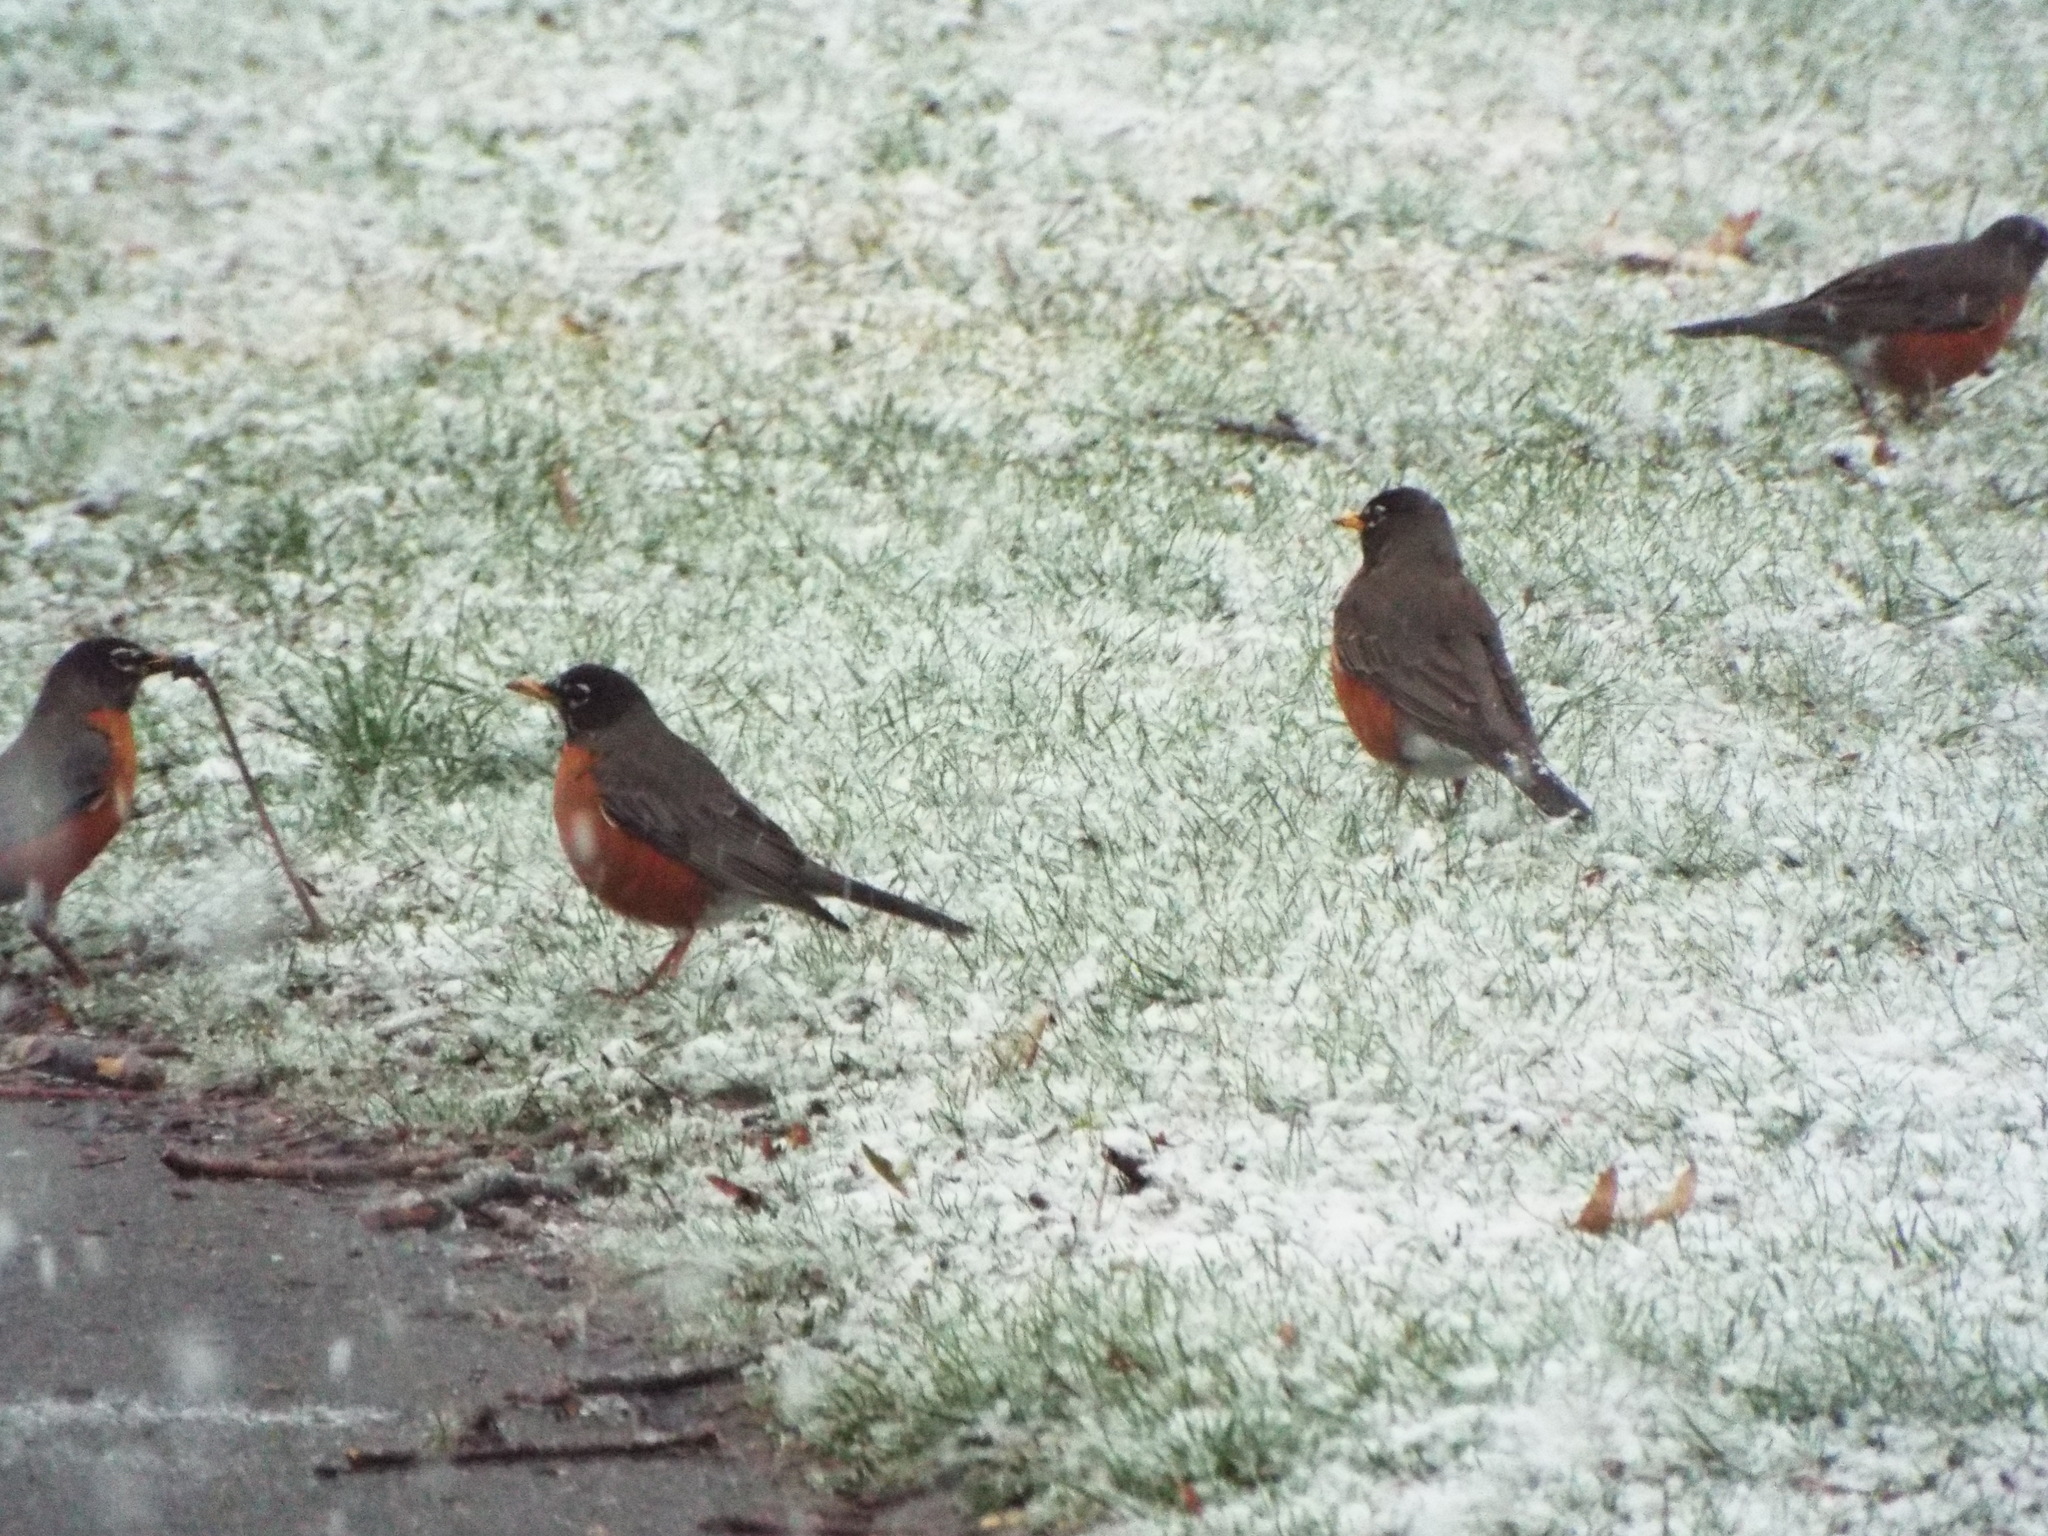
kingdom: Animalia
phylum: Chordata
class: Aves
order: Passeriformes
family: Turdidae
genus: Turdus
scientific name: Turdus migratorius
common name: American robin
